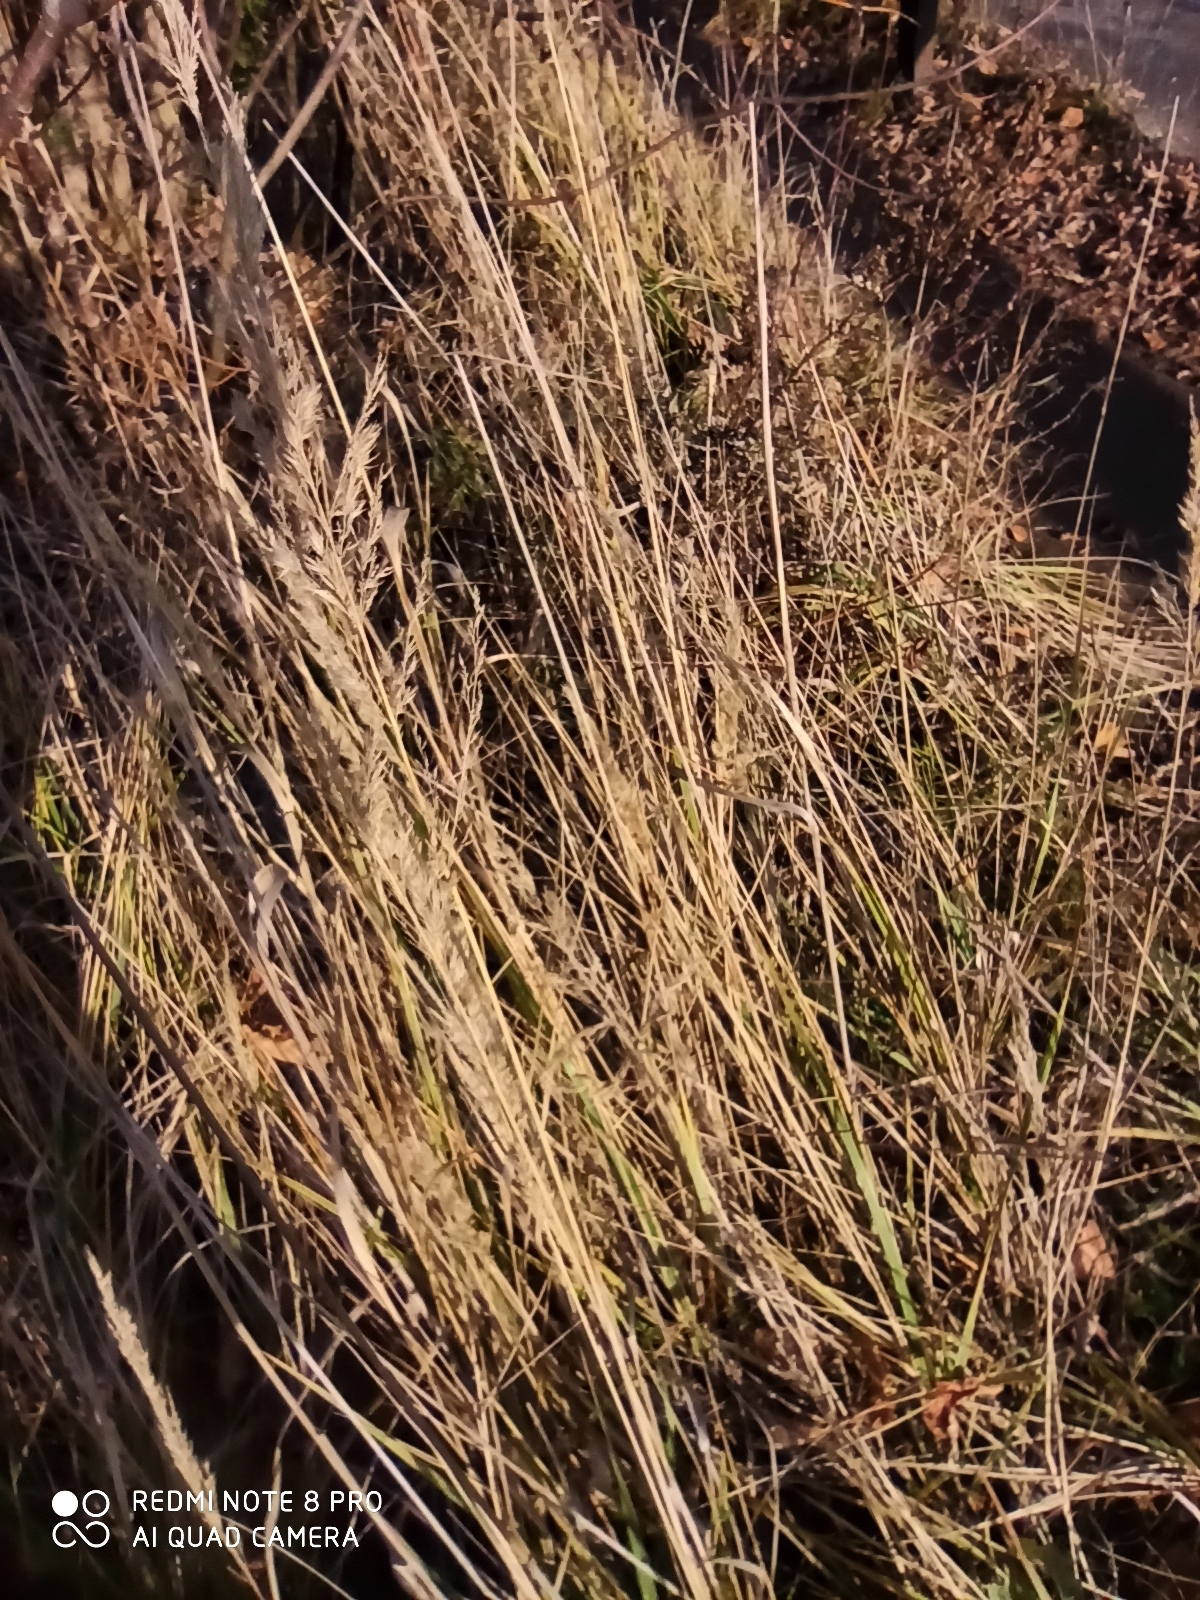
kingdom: Plantae
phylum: Tracheophyta
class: Liliopsida
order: Poales
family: Poaceae
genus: Calamagrostis
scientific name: Calamagrostis epigejos
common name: Wood small-reed
